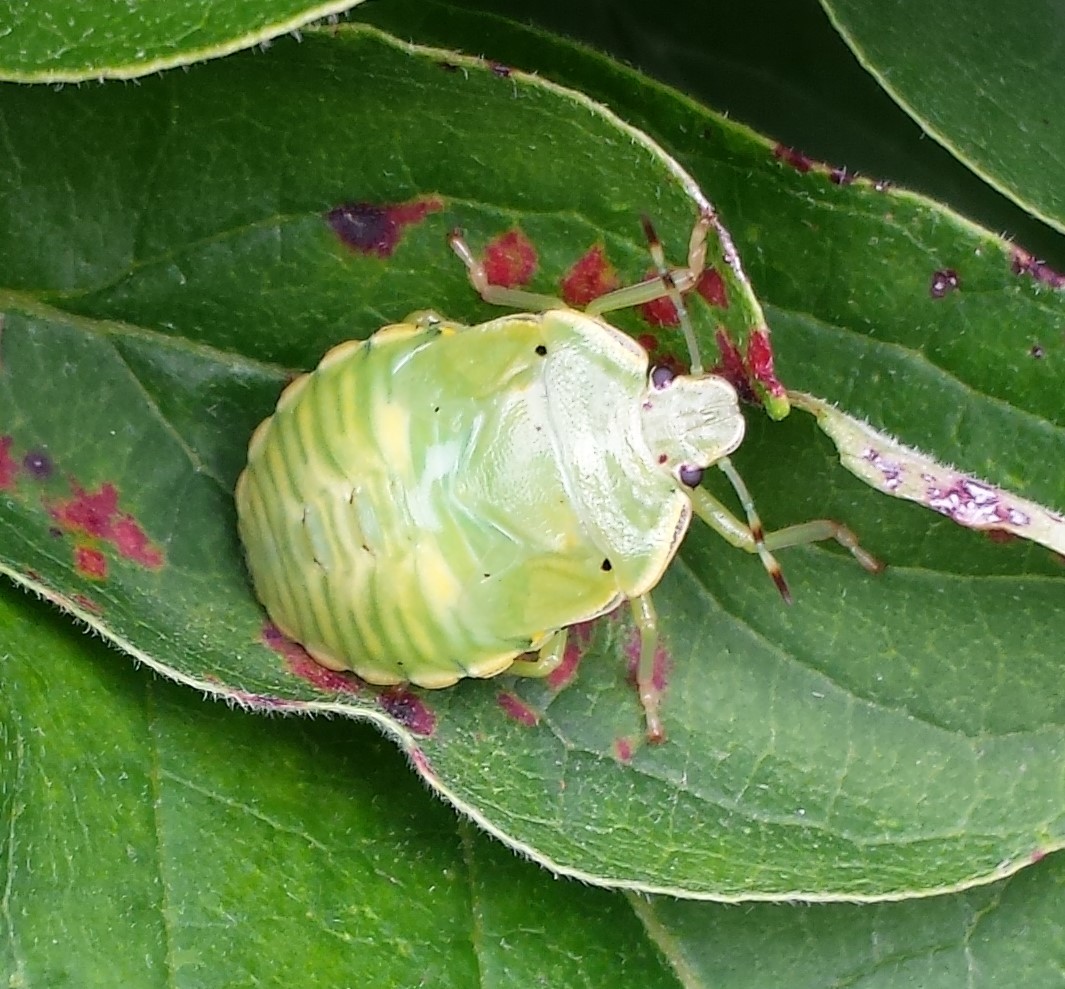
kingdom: Animalia
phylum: Arthropoda
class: Insecta
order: Hemiptera
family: Pentatomidae
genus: Chinavia
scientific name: Chinavia hilaris
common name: Green stink bug
